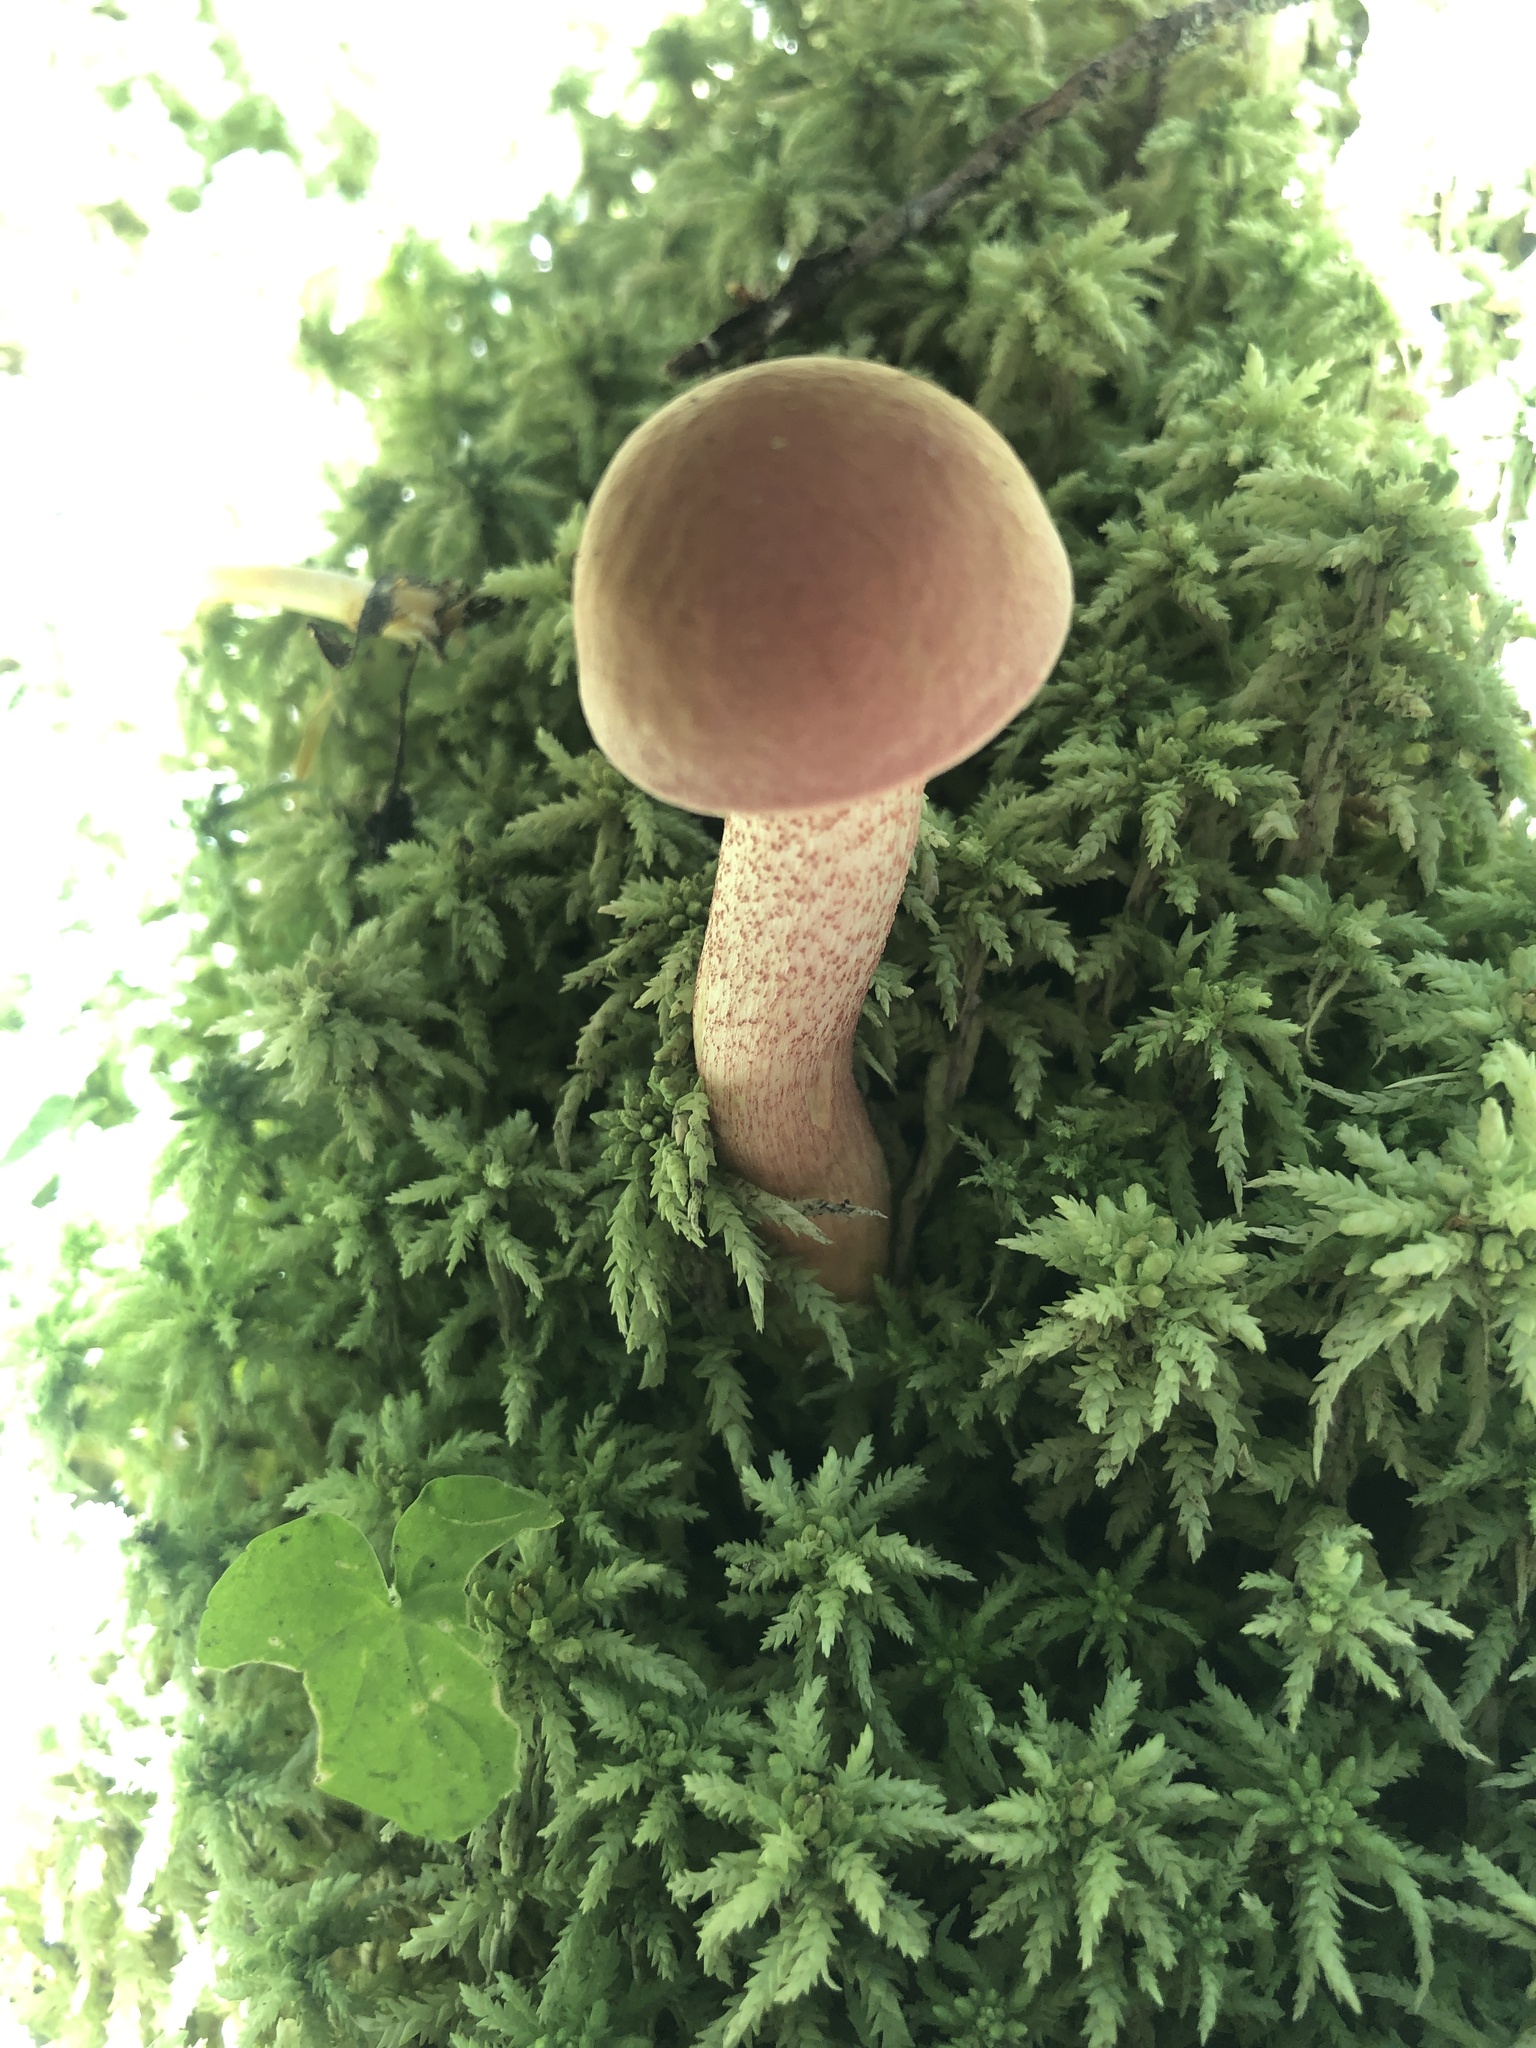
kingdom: Fungi
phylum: Basidiomycota
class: Agaricomycetes
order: Boletales
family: Boletaceae
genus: Harrya
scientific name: Harrya chromipes
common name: Chrome-footed bolete
